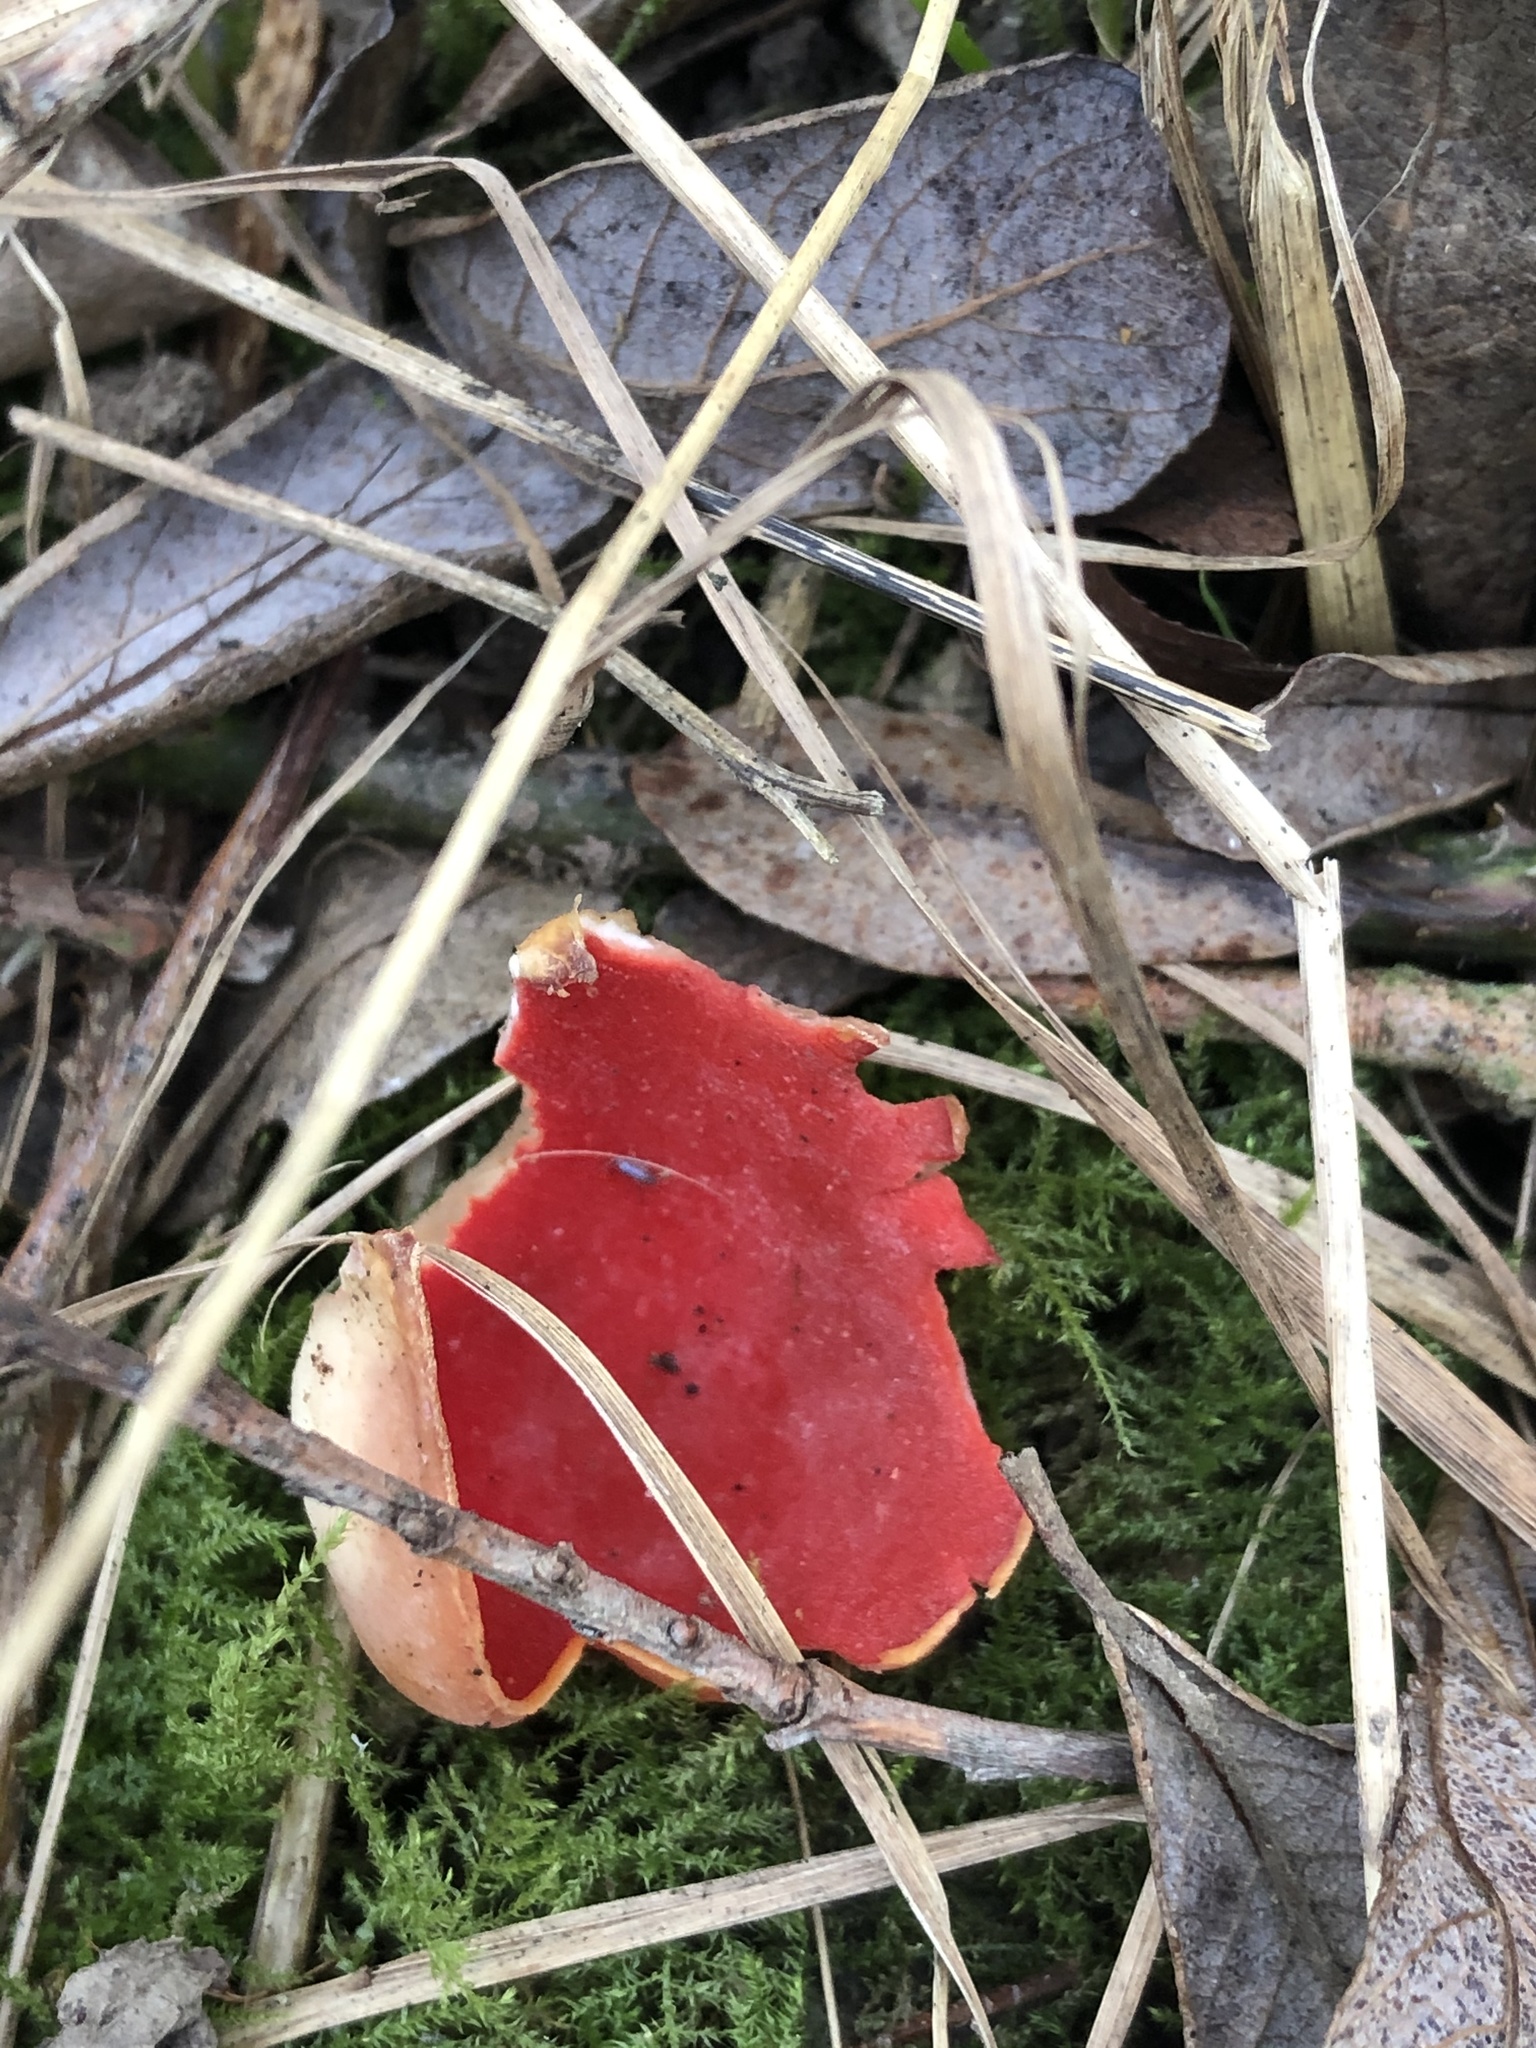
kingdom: Fungi
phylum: Ascomycota
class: Pezizomycetes
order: Pezizales
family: Sarcoscyphaceae
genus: Sarcoscypha
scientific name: Sarcoscypha
